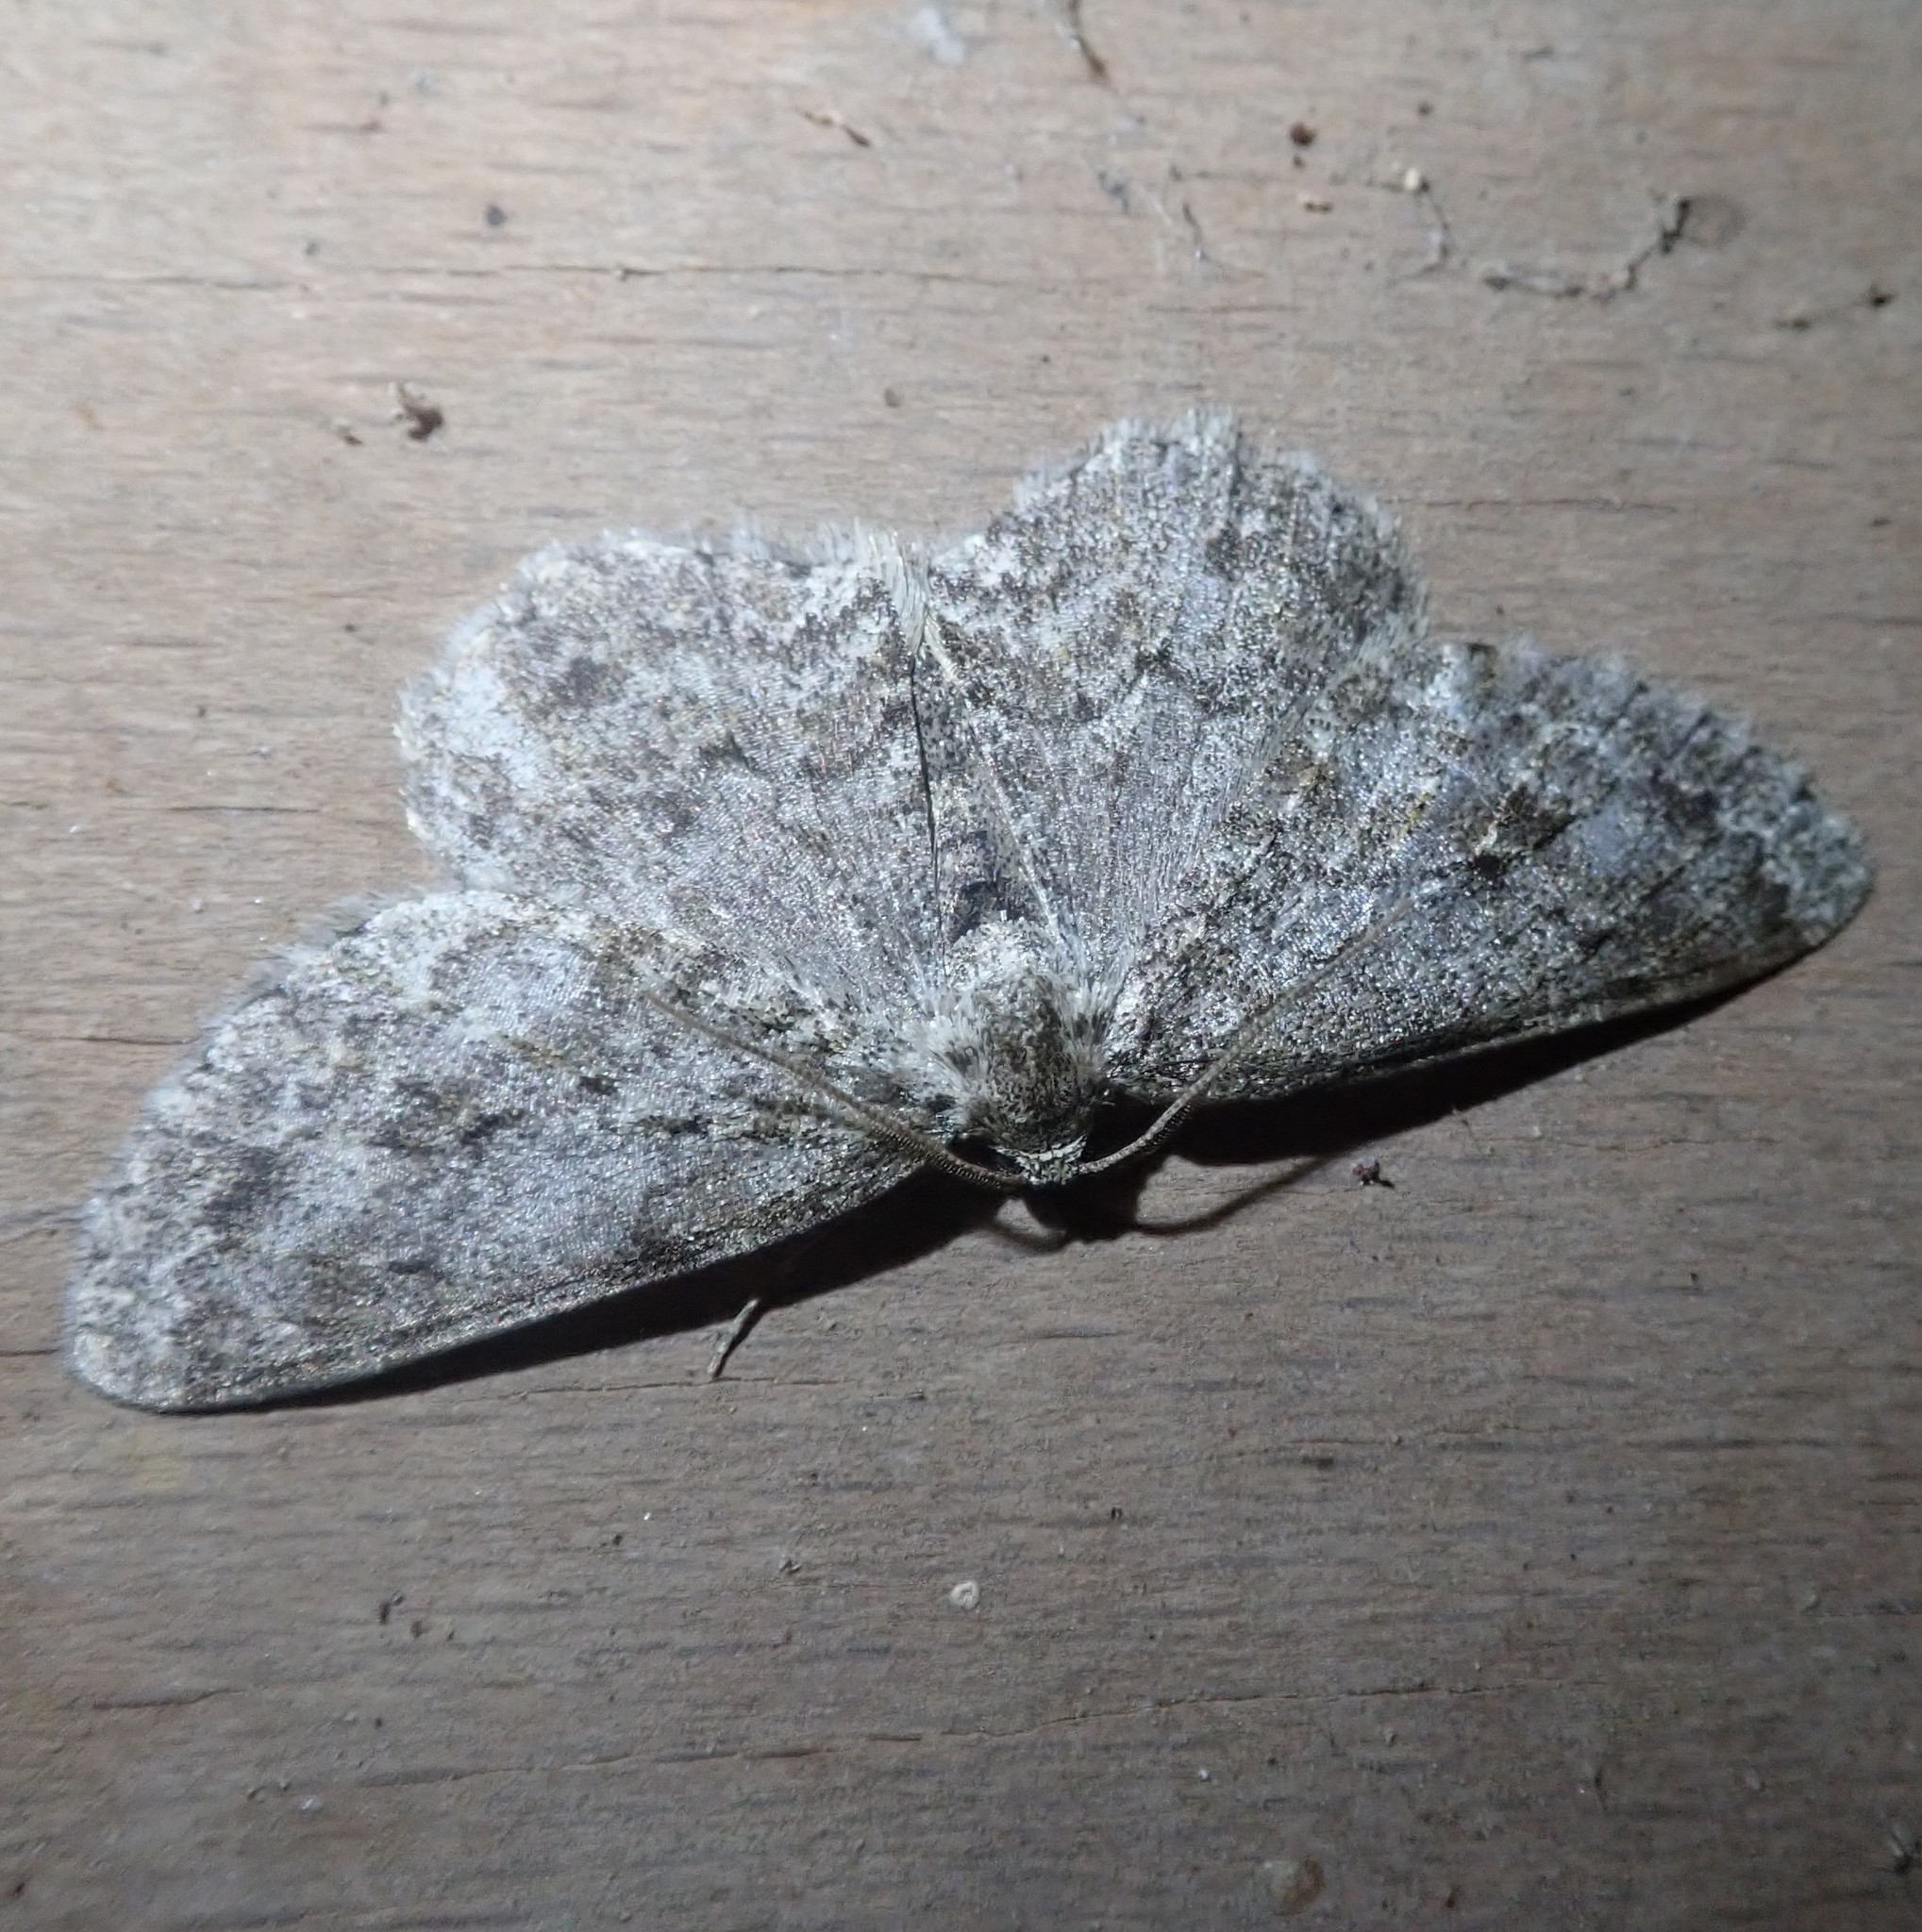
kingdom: Animalia
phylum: Arthropoda
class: Insecta
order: Lepidoptera
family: Geometridae
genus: Ectropis
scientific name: Ectropis crepuscularia
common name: Engrailed
